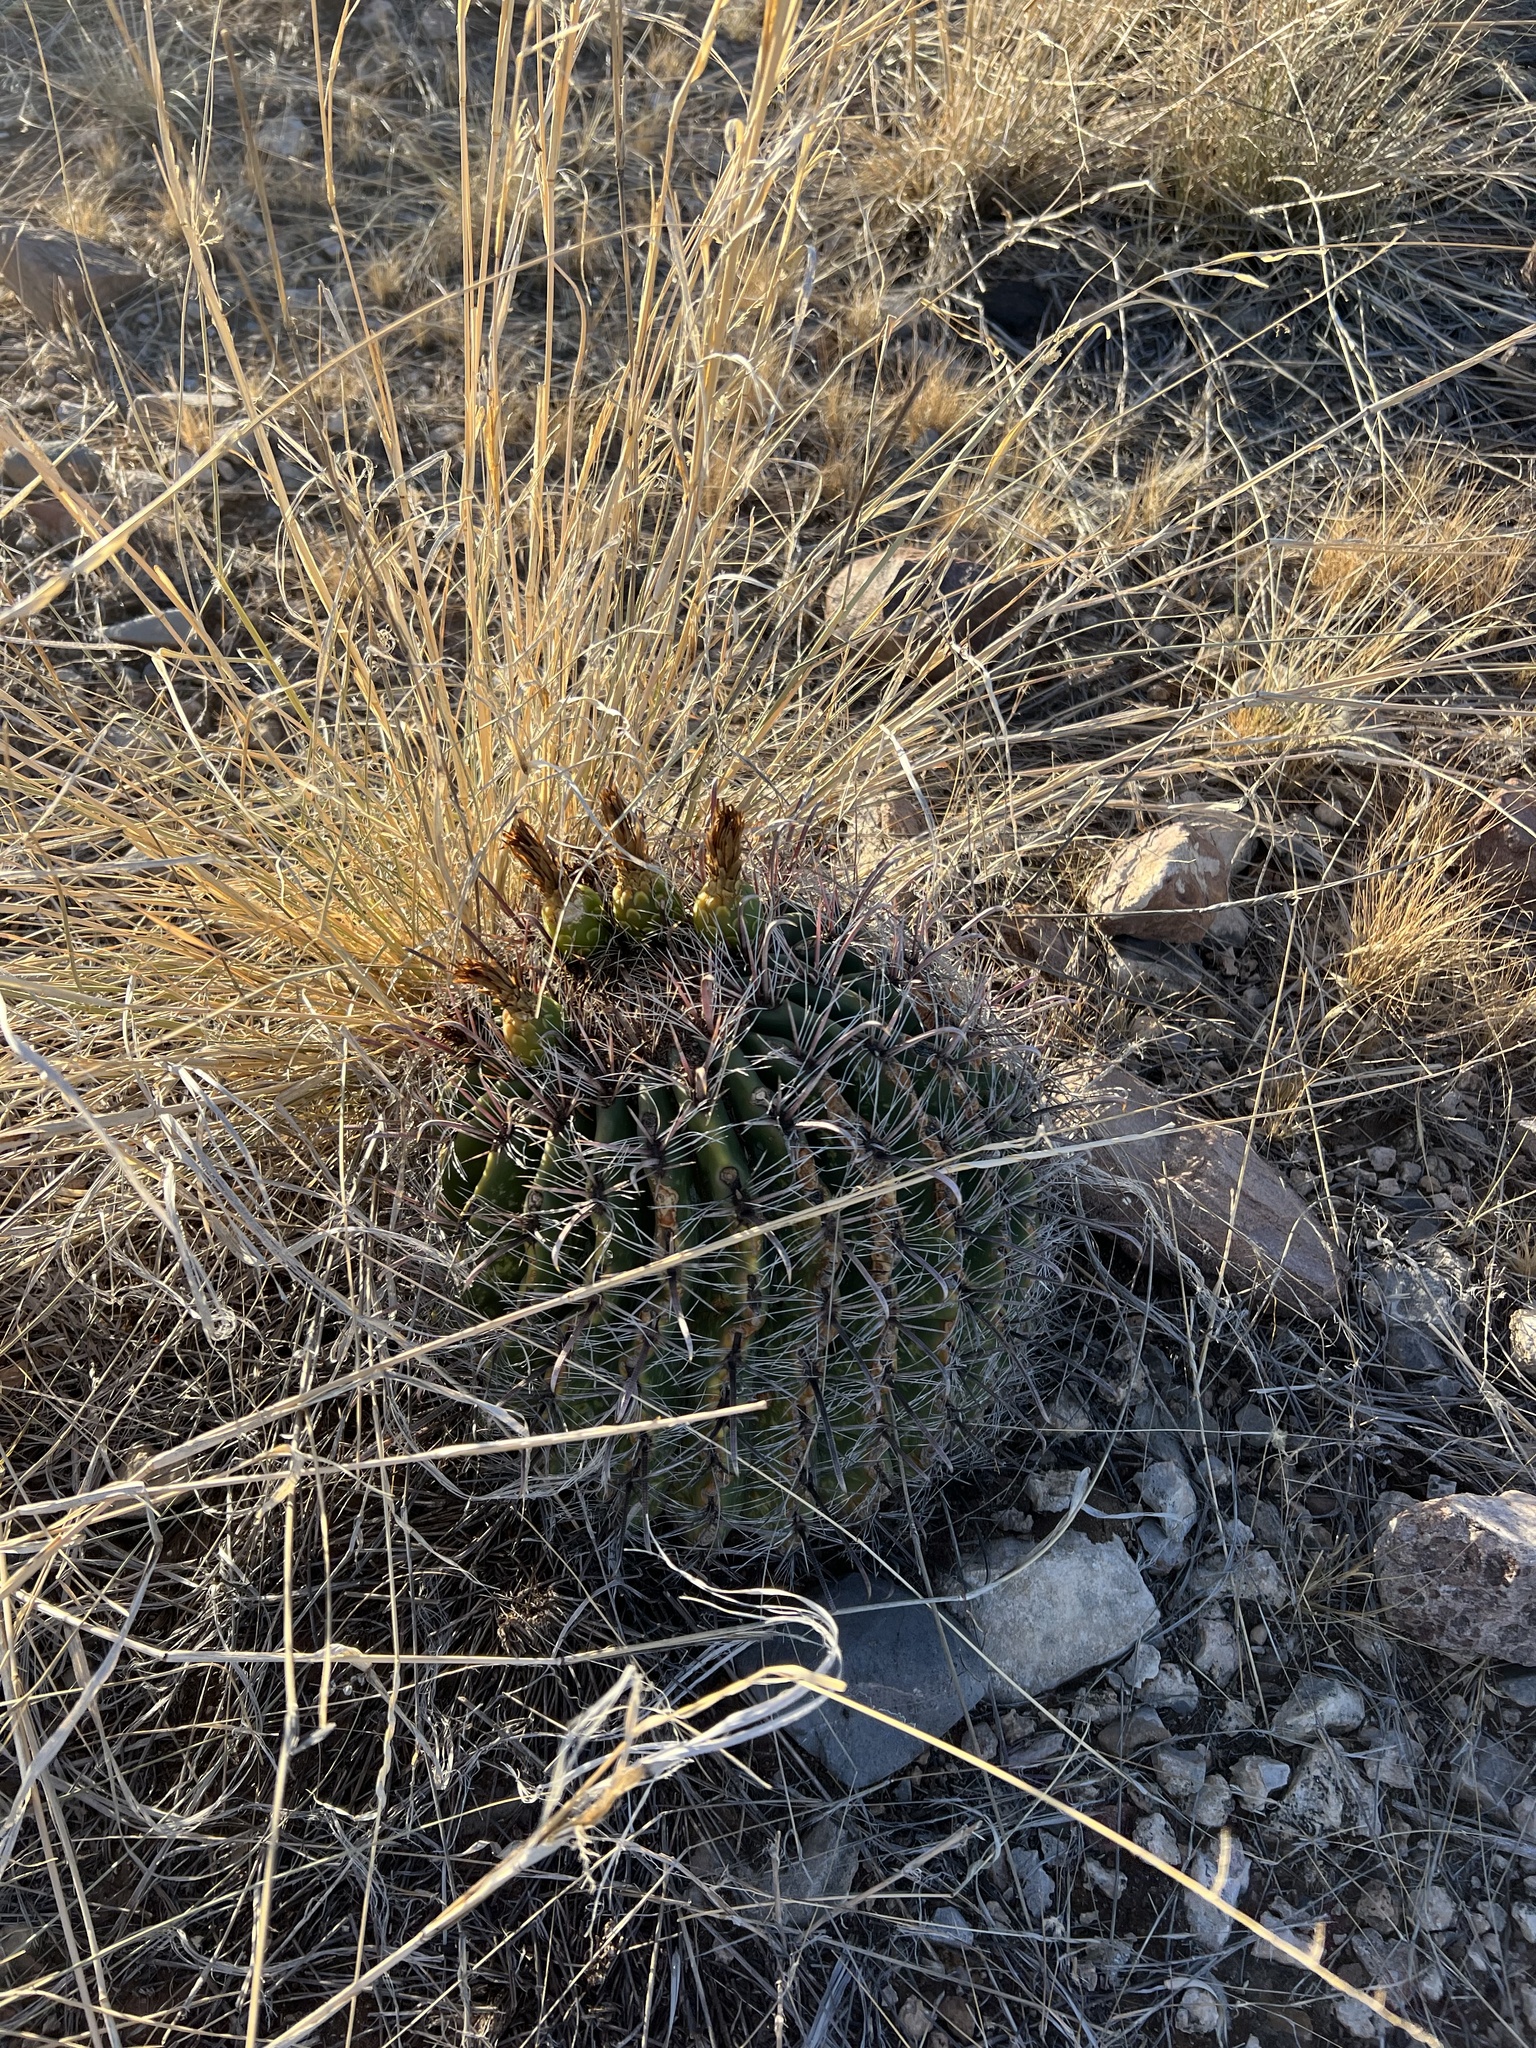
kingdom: Plantae
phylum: Tracheophyta
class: Magnoliopsida
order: Caryophyllales
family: Cactaceae
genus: Ferocactus
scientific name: Ferocactus wislizeni
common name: Candy barrel cactus
